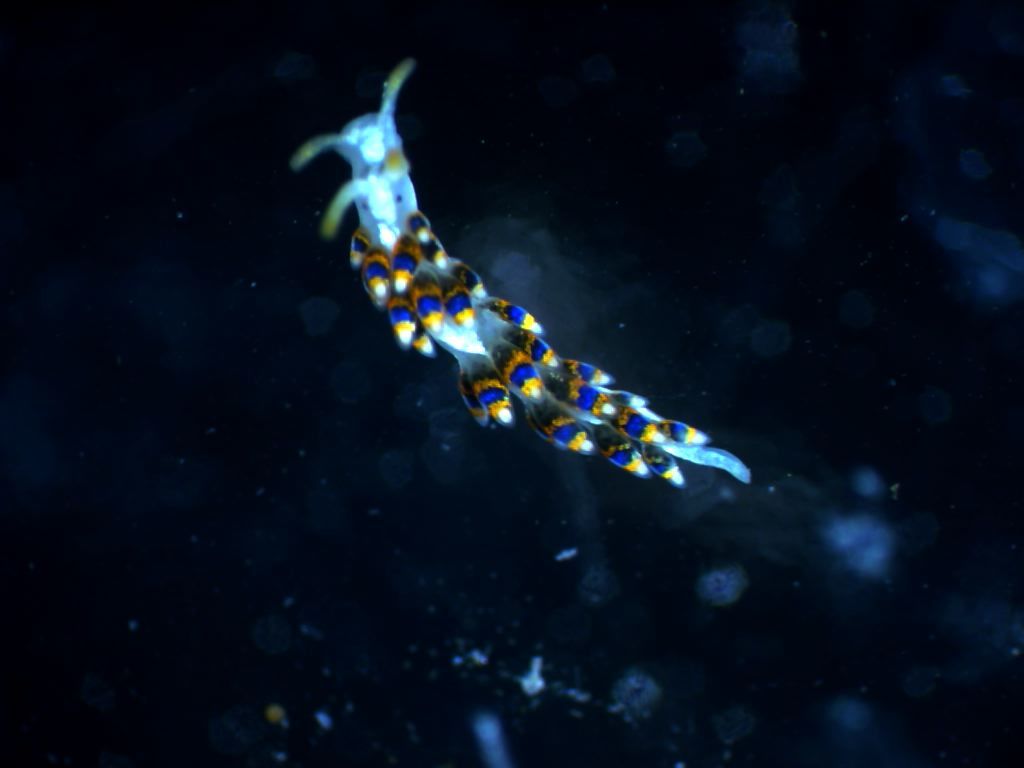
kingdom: Animalia
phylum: Mollusca
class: Gastropoda
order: Nudibranchia
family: Trinchesiidae
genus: Trinchesia
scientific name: Trinchesia morrowae
